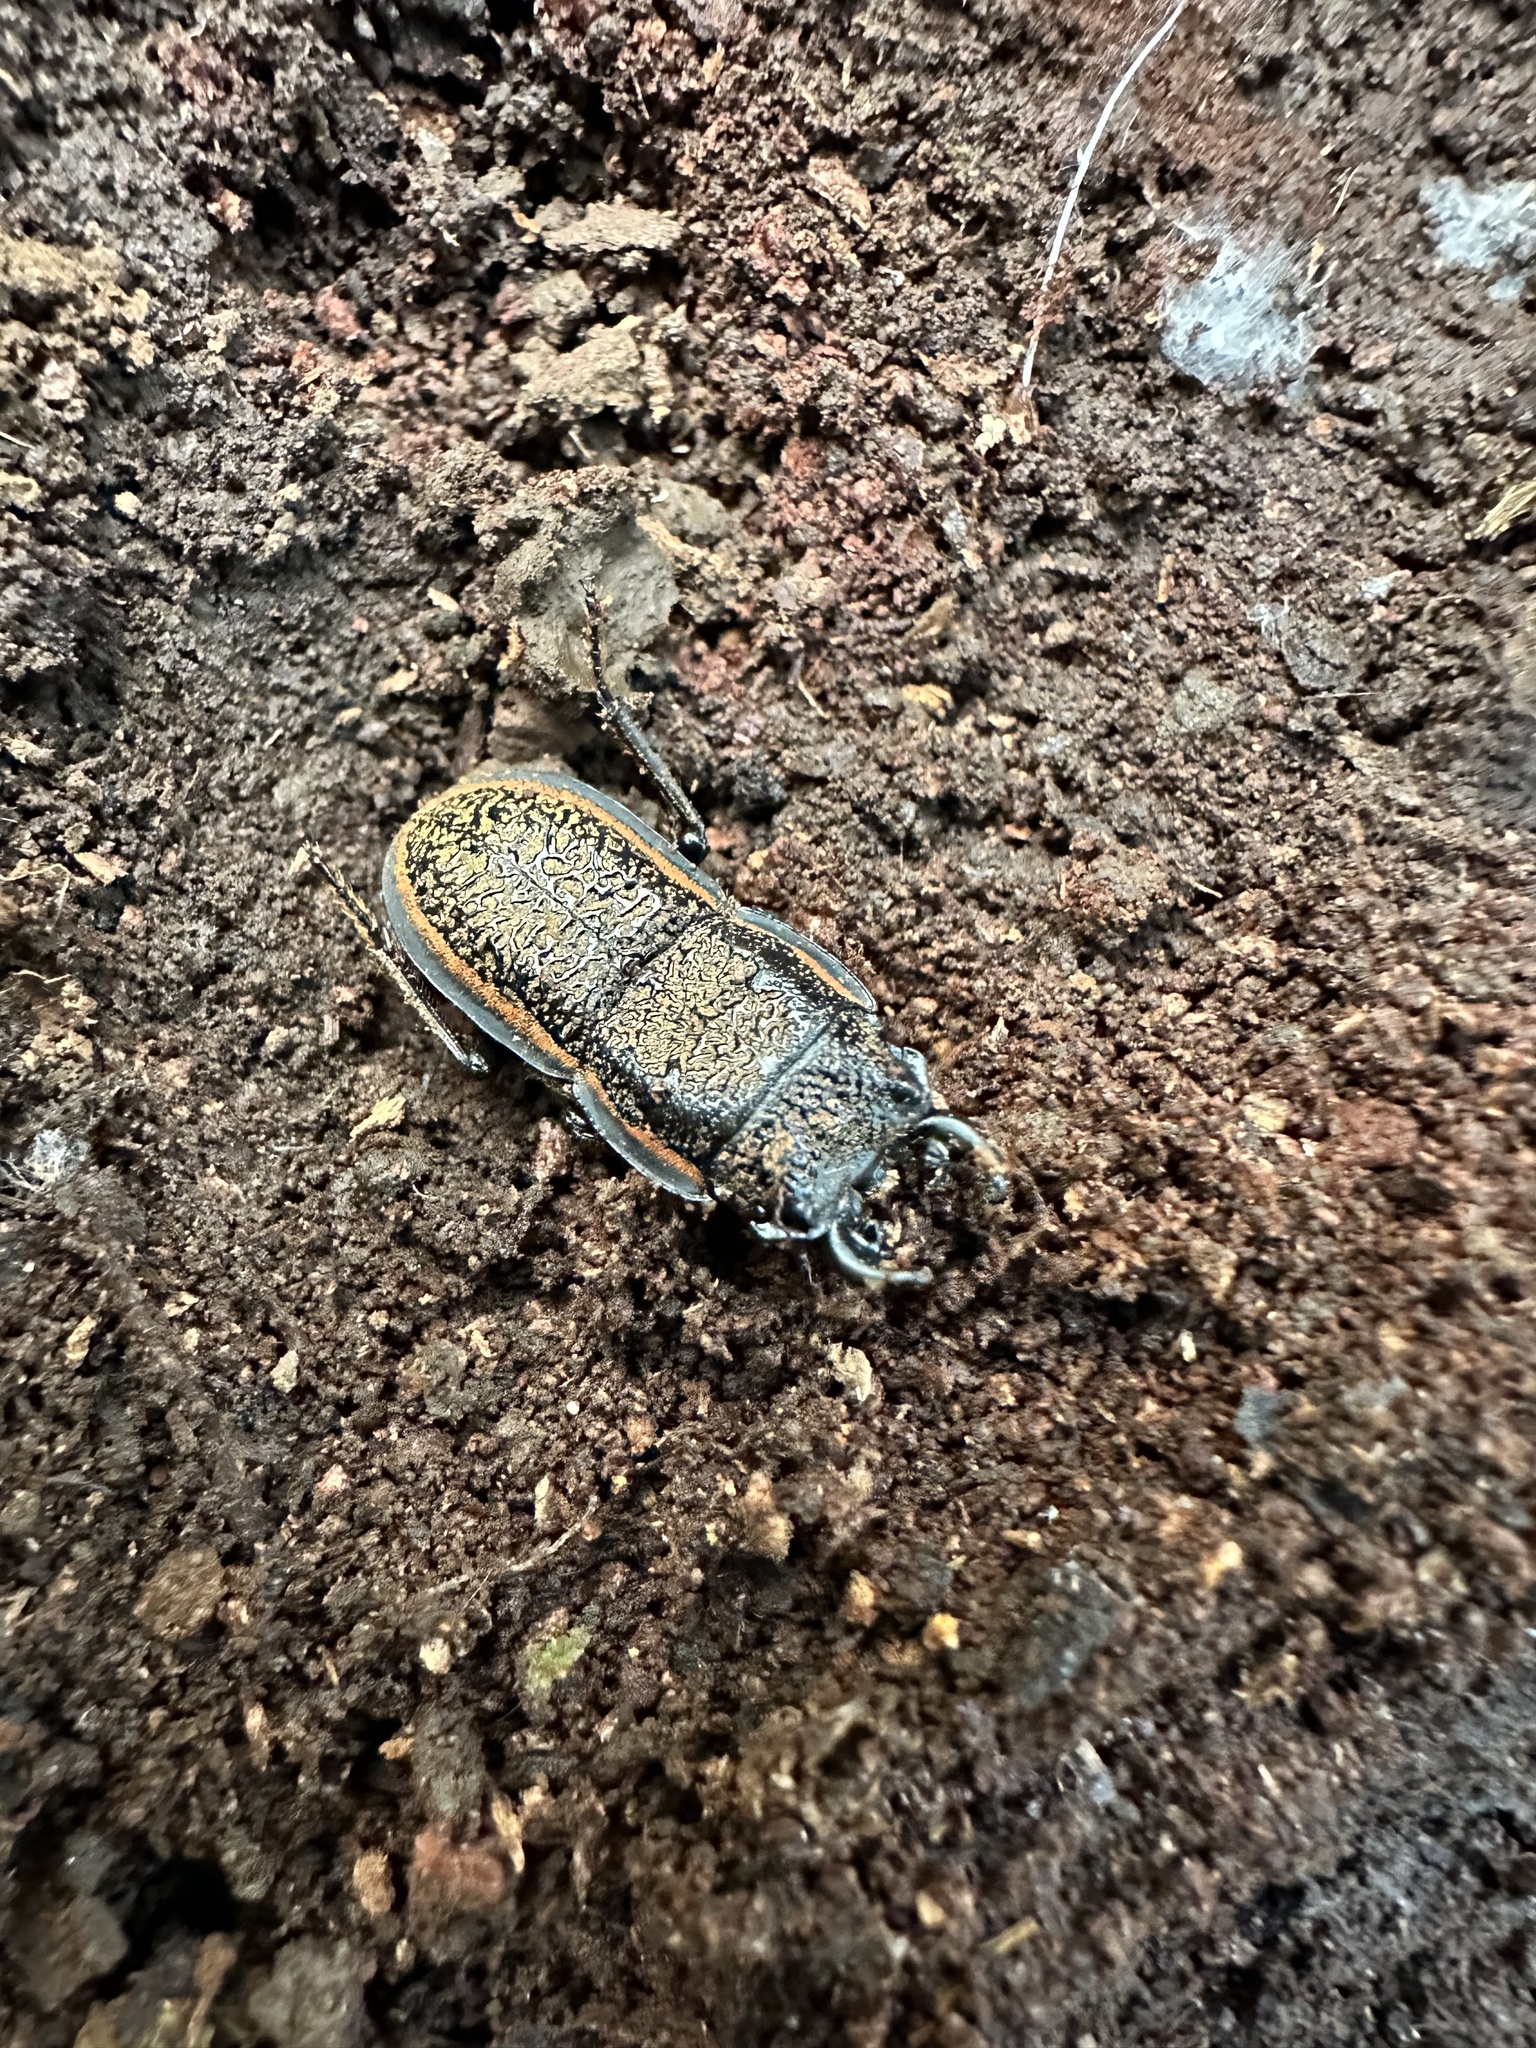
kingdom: Animalia
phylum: Arthropoda
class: Insecta
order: Coleoptera
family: Lucanidae
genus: Erichius
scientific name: Erichius caelatus
